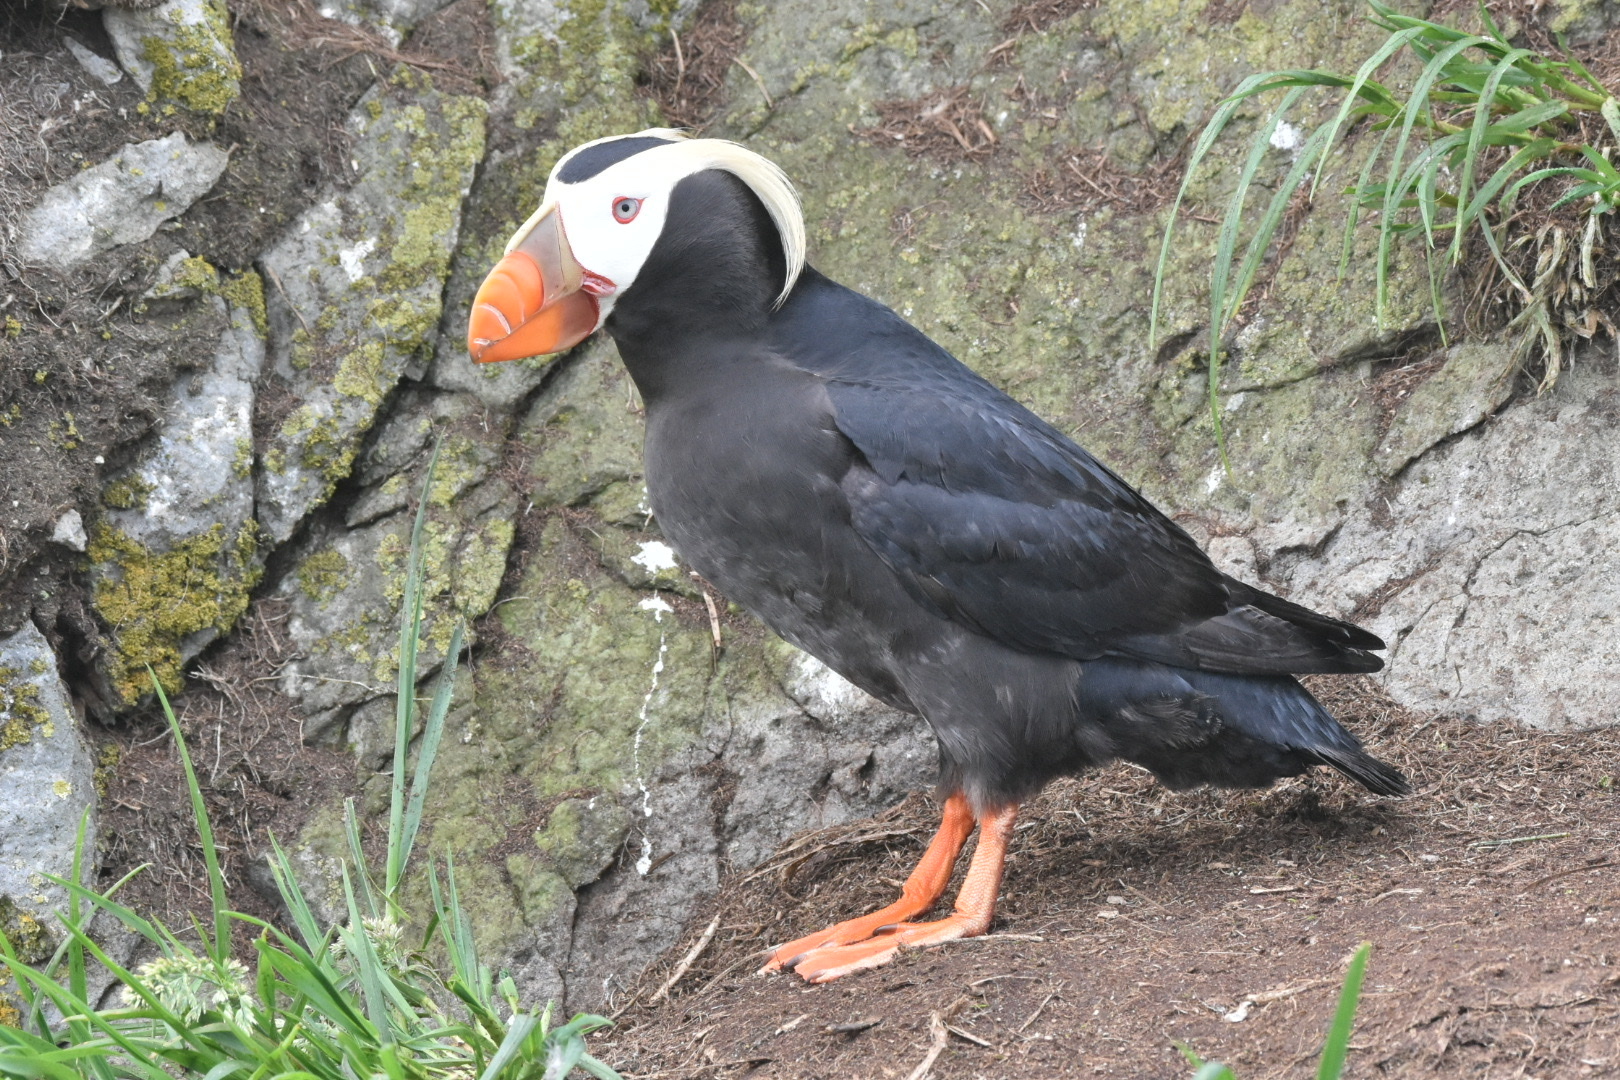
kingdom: Animalia
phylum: Chordata
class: Aves
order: Charadriiformes
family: Alcidae
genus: Fratercula
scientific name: Fratercula cirrhata
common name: Tufted puffin
